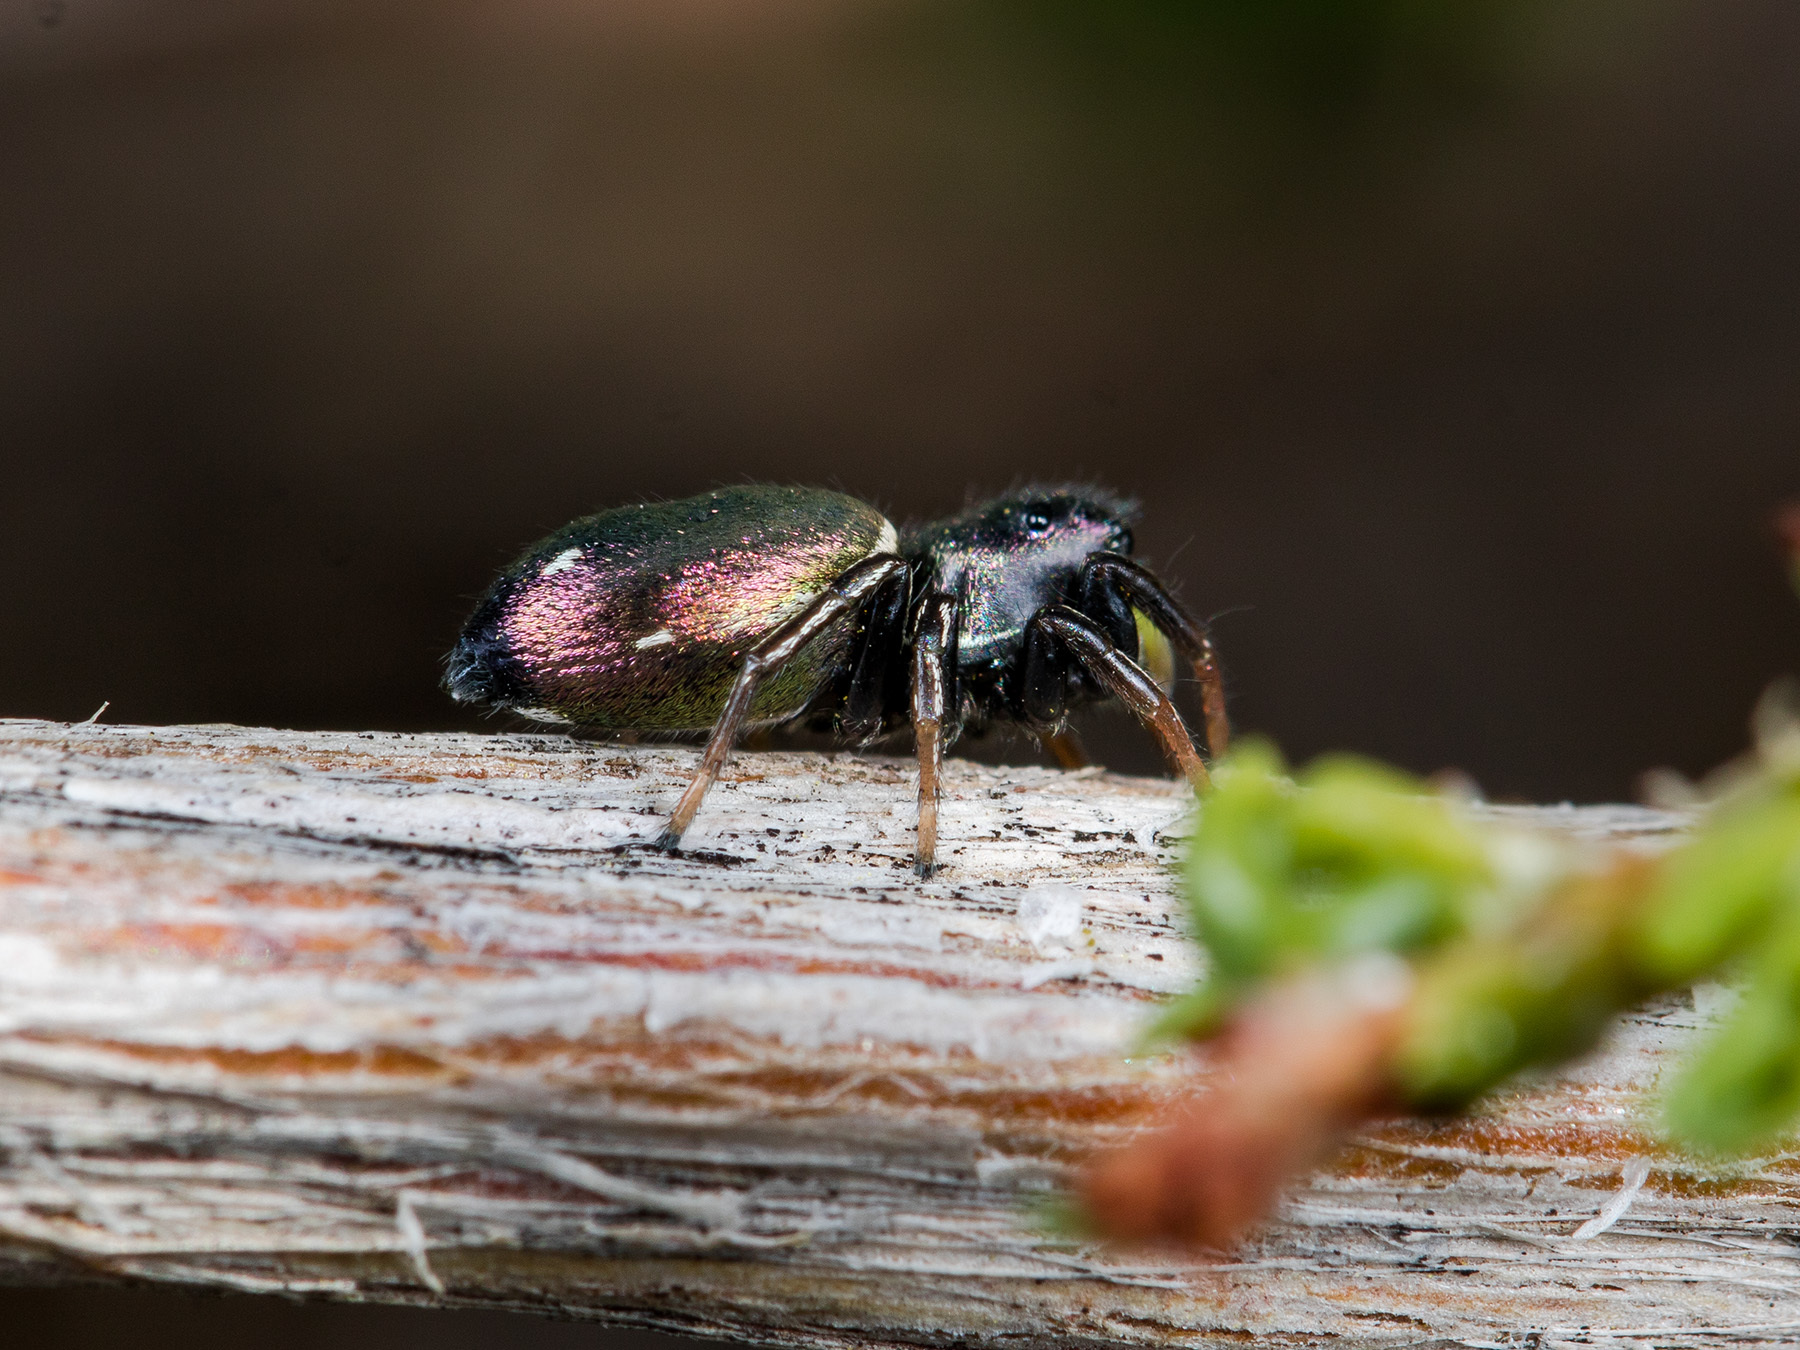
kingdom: Animalia
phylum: Arthropoda
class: Arachnida
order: Araneae
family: Salticidae
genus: Heliophanus
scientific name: Heliophanus chovdensis
